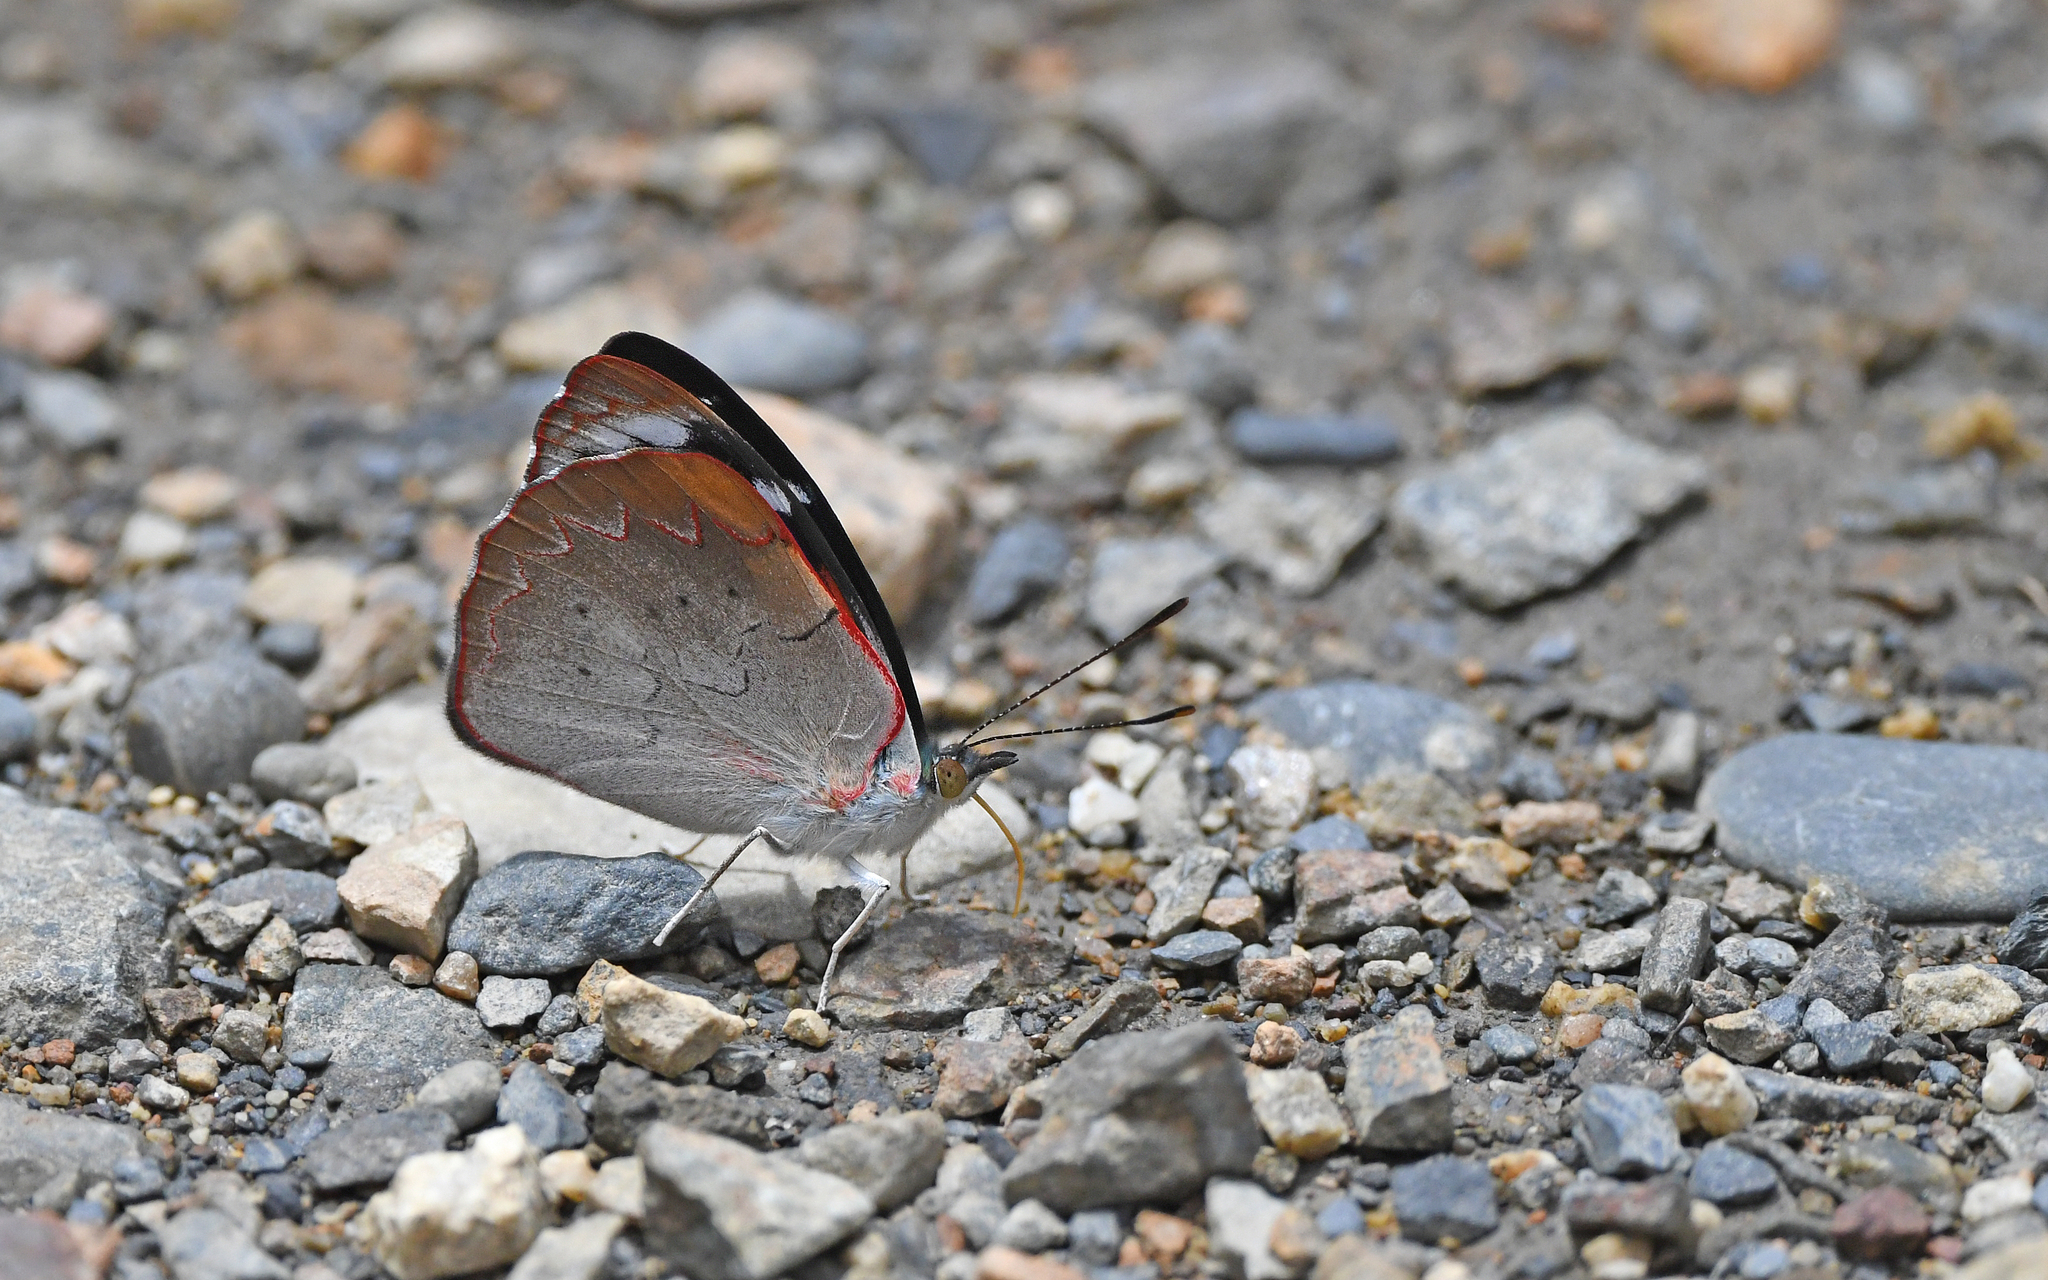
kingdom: Animalia
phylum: Arthropoda
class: Insecta
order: Lepidoptera
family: Nymphalidae
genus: Perisama
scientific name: Perisama calamis
